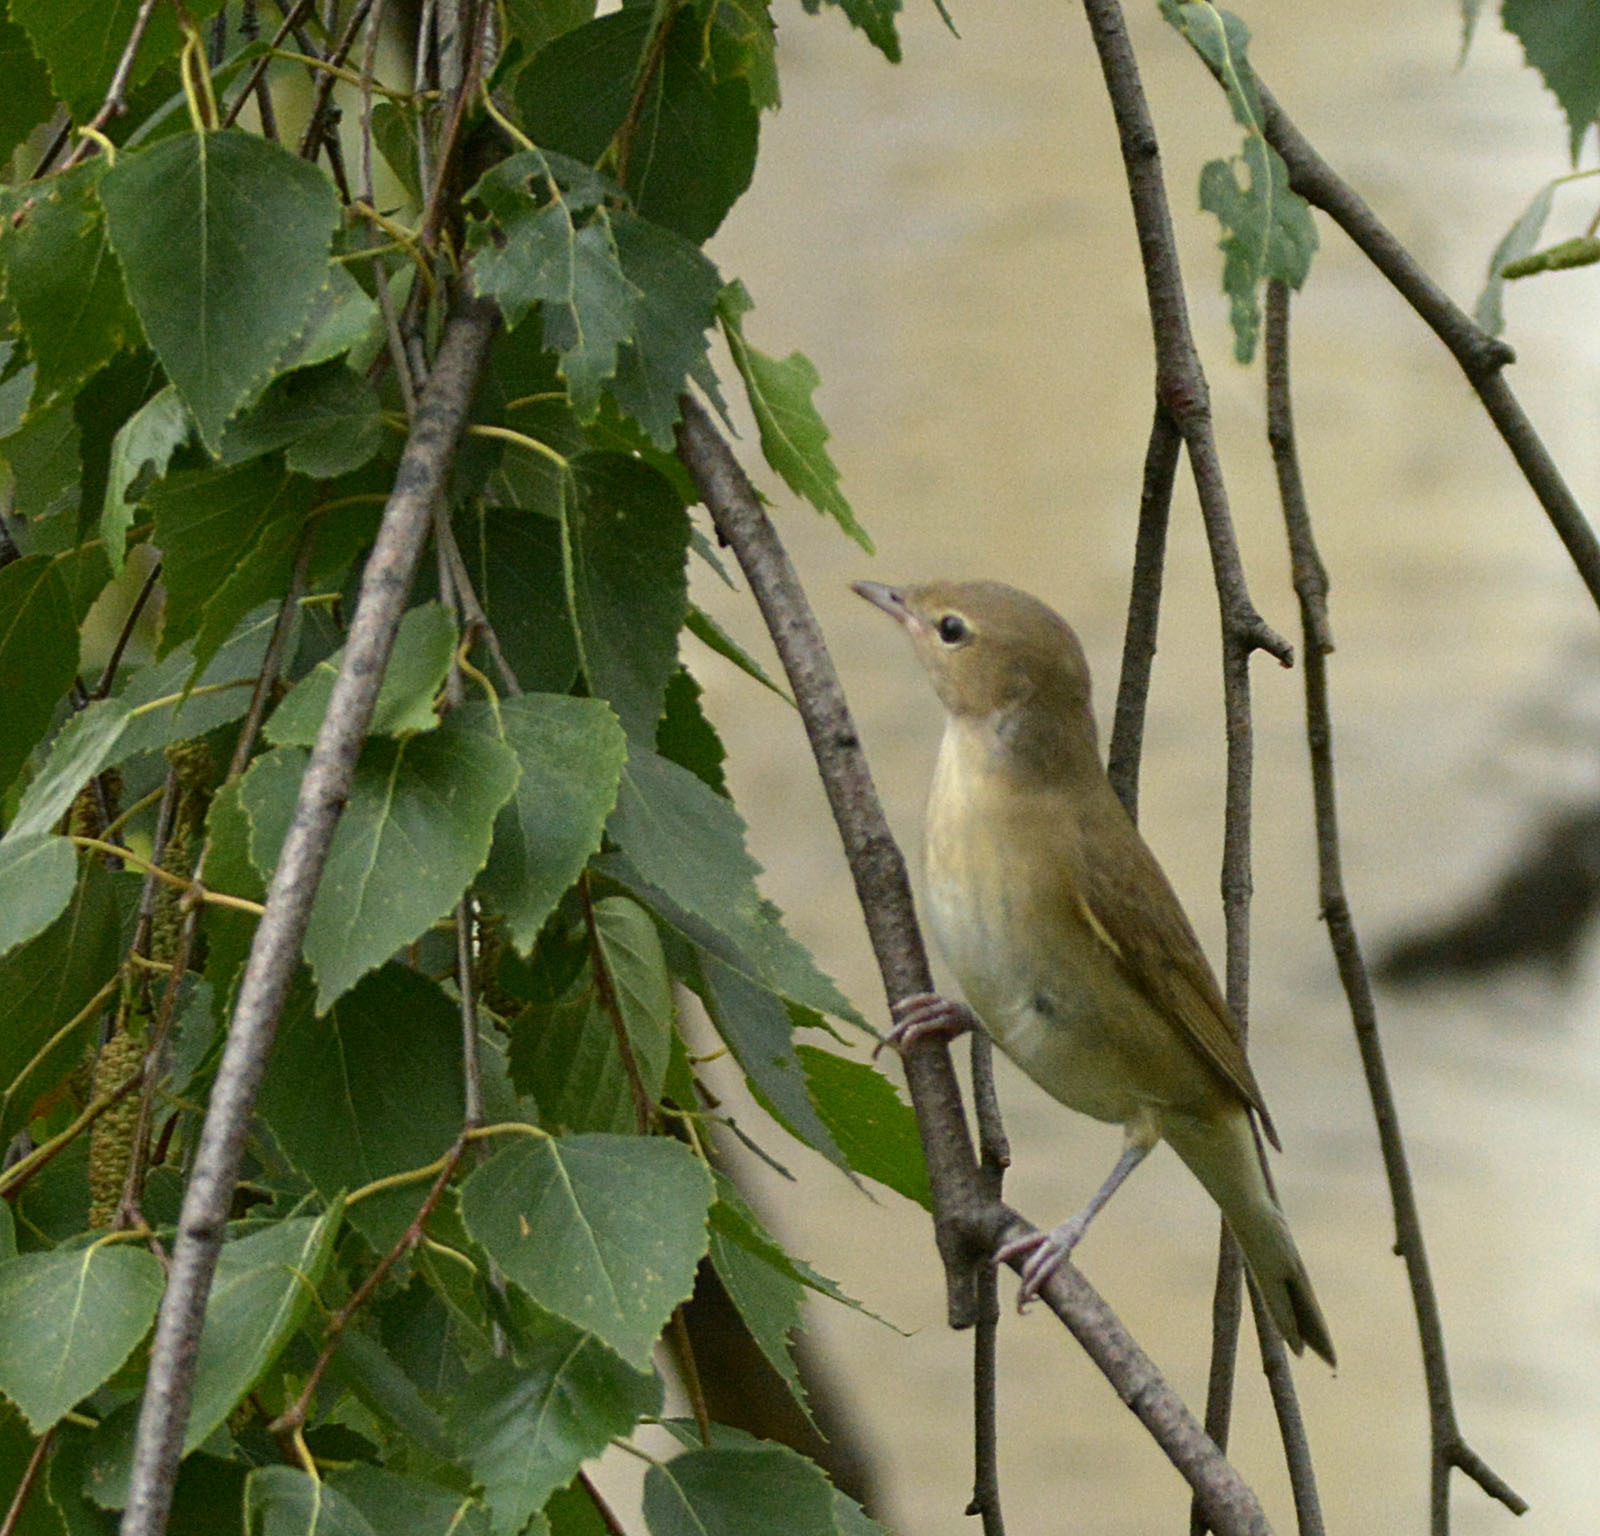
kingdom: Animalia
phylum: Chordata
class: Aves
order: Passeriformes
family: Sylviidae
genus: Sylvia
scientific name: Sylvia borin
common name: Garden warbler
